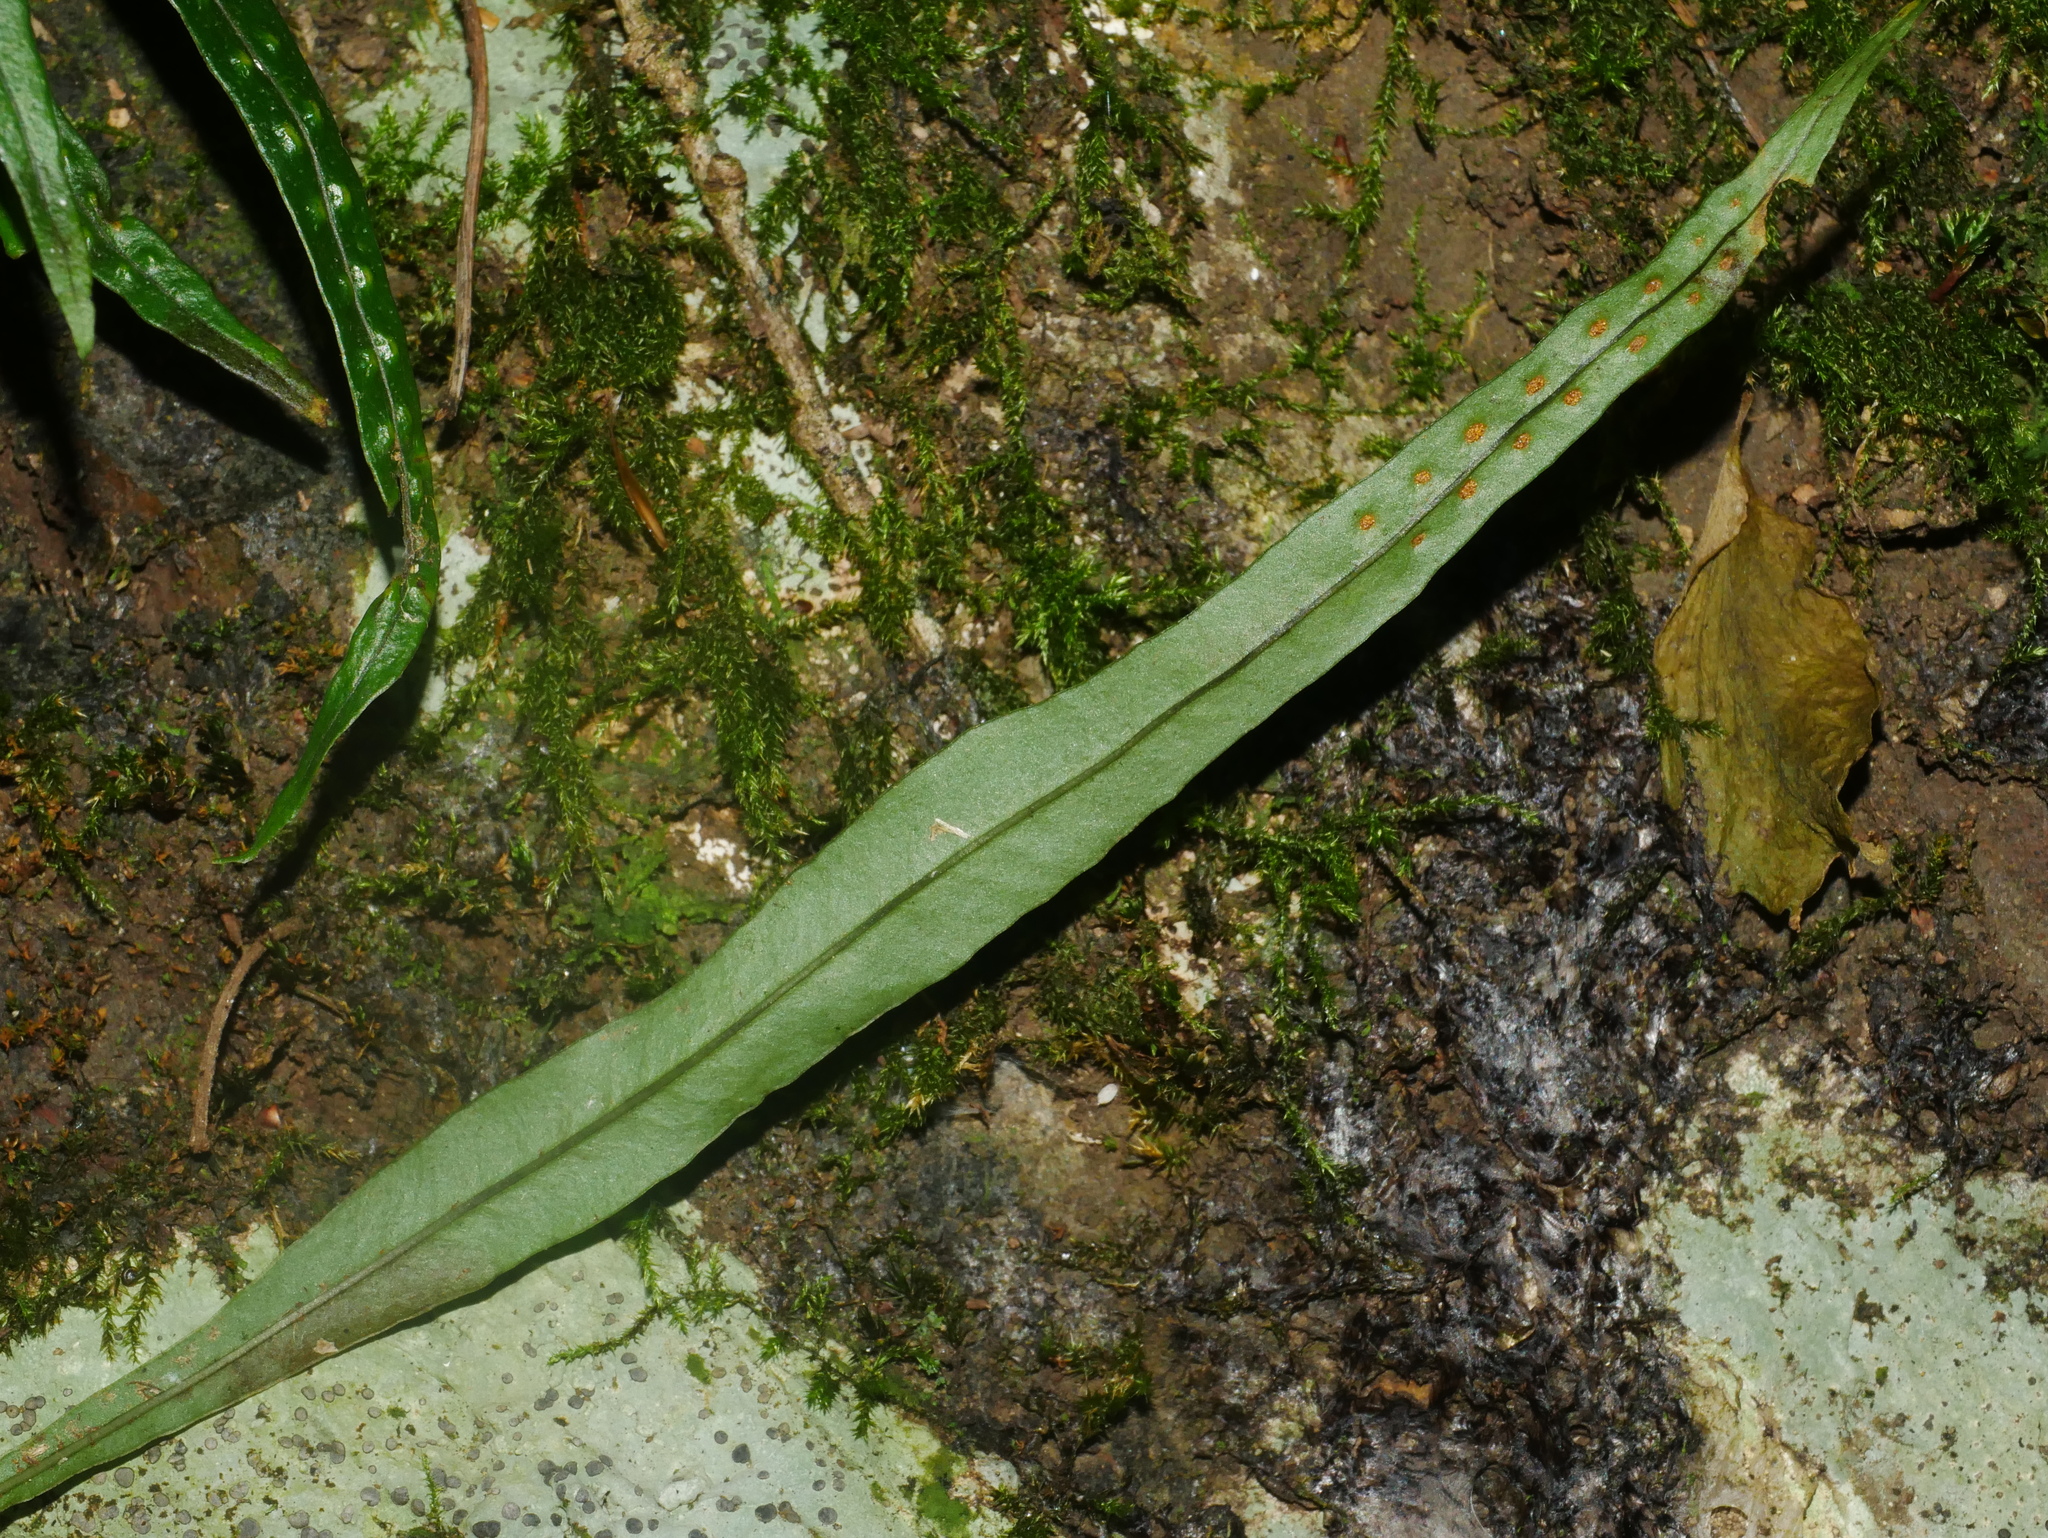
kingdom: Plantae
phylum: Tracheophyta
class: Polypodiopsida
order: Polypodiales
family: Polypodiaceae
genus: Lepisorus
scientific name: Lepisorus pseudoussuriensis
